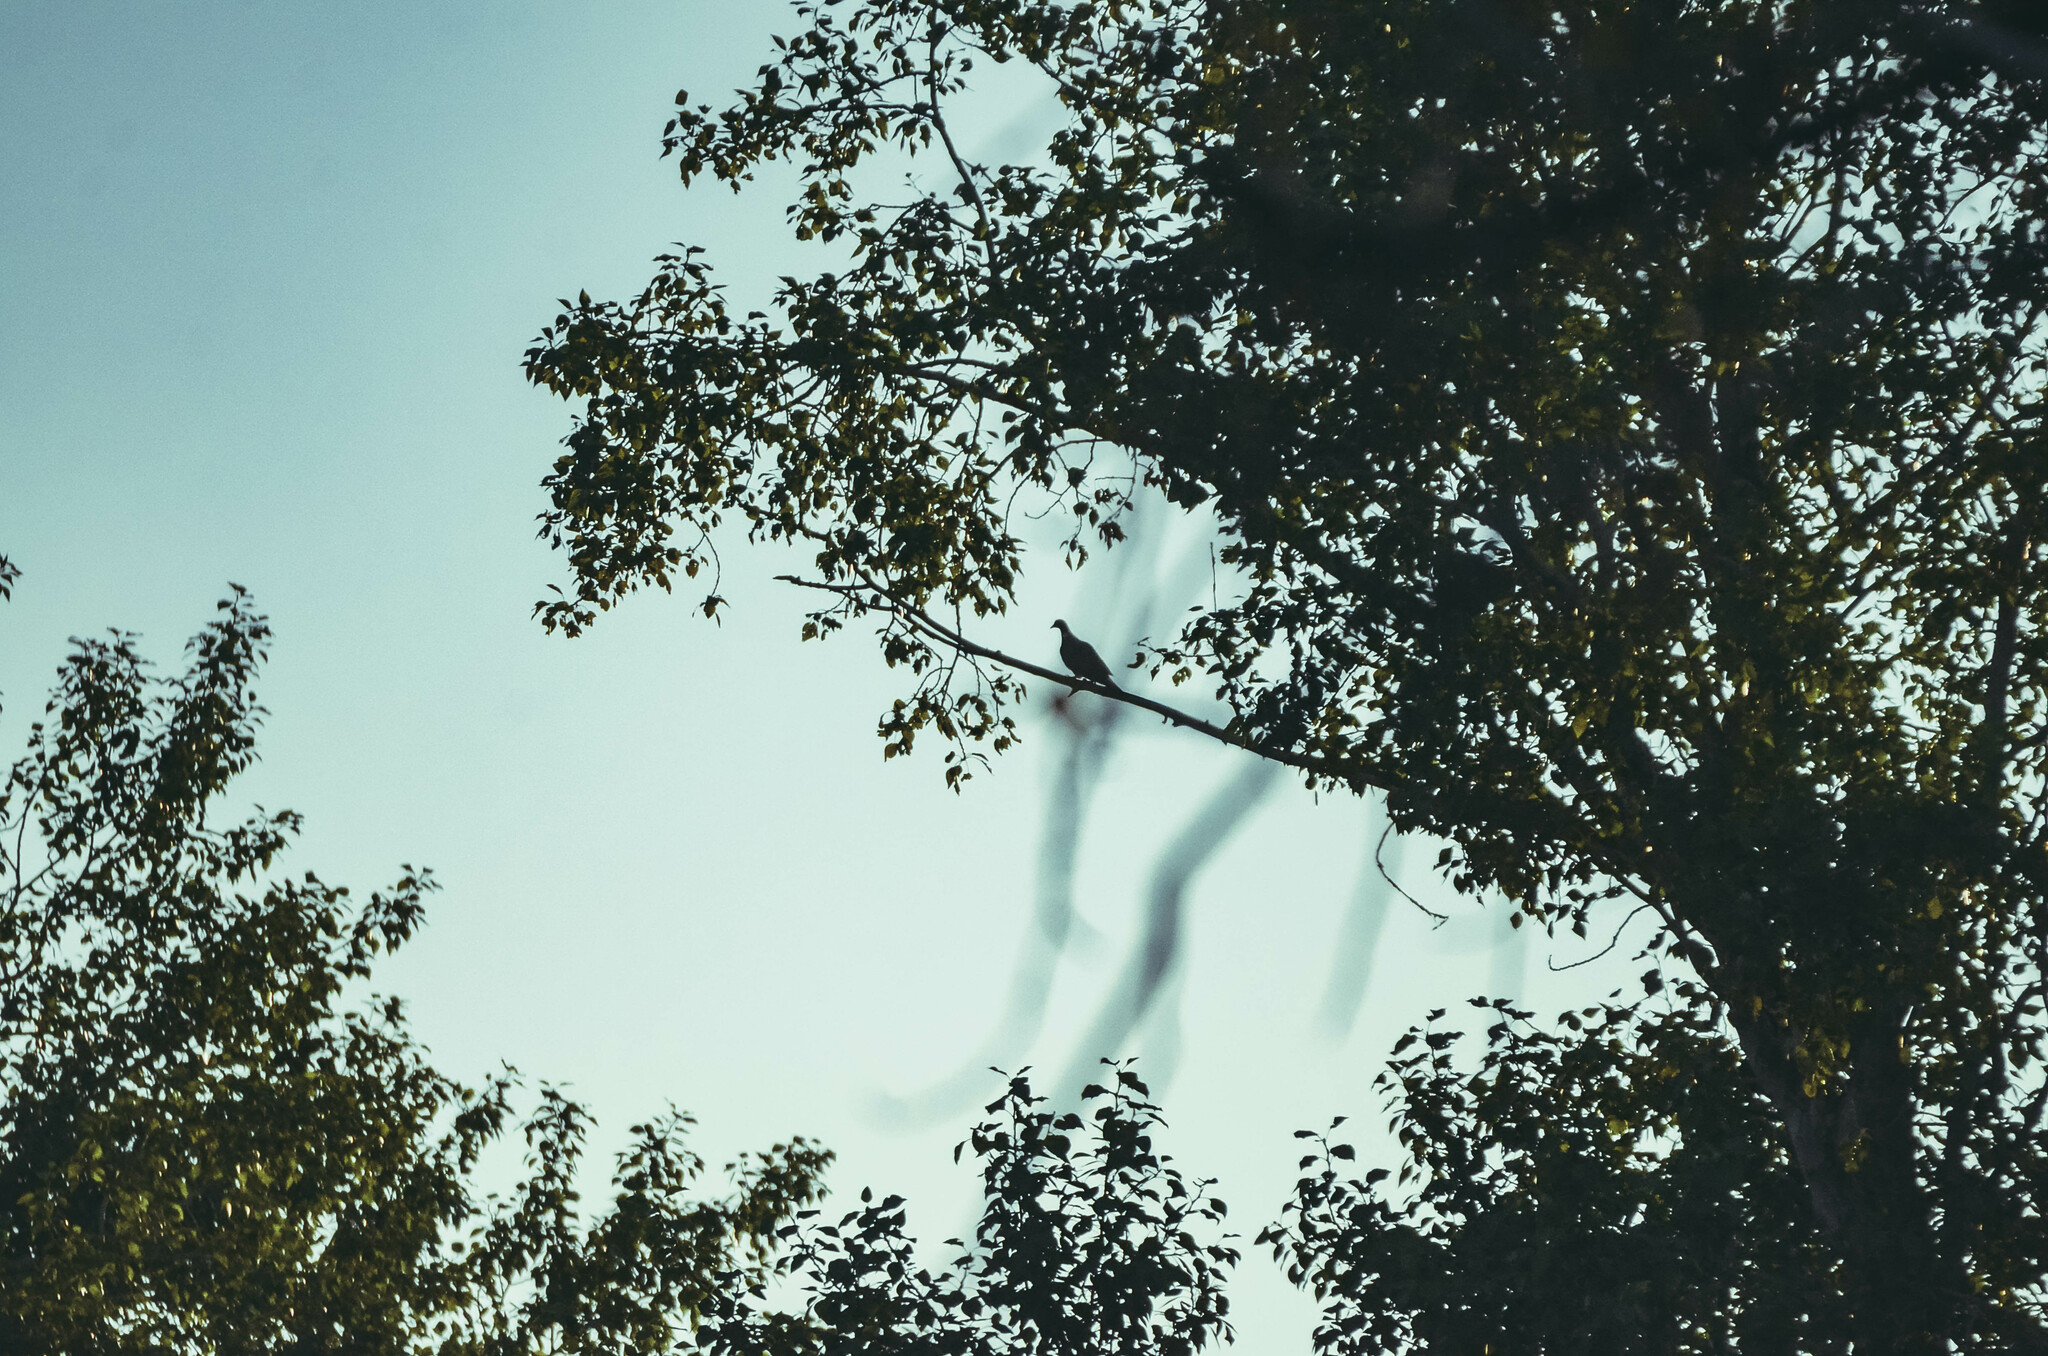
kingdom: Animalia
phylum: Chordata
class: Aves
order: Columbiformes
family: Columbidae
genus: Columba
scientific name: Columba palumbus
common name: Common wood pigeon
